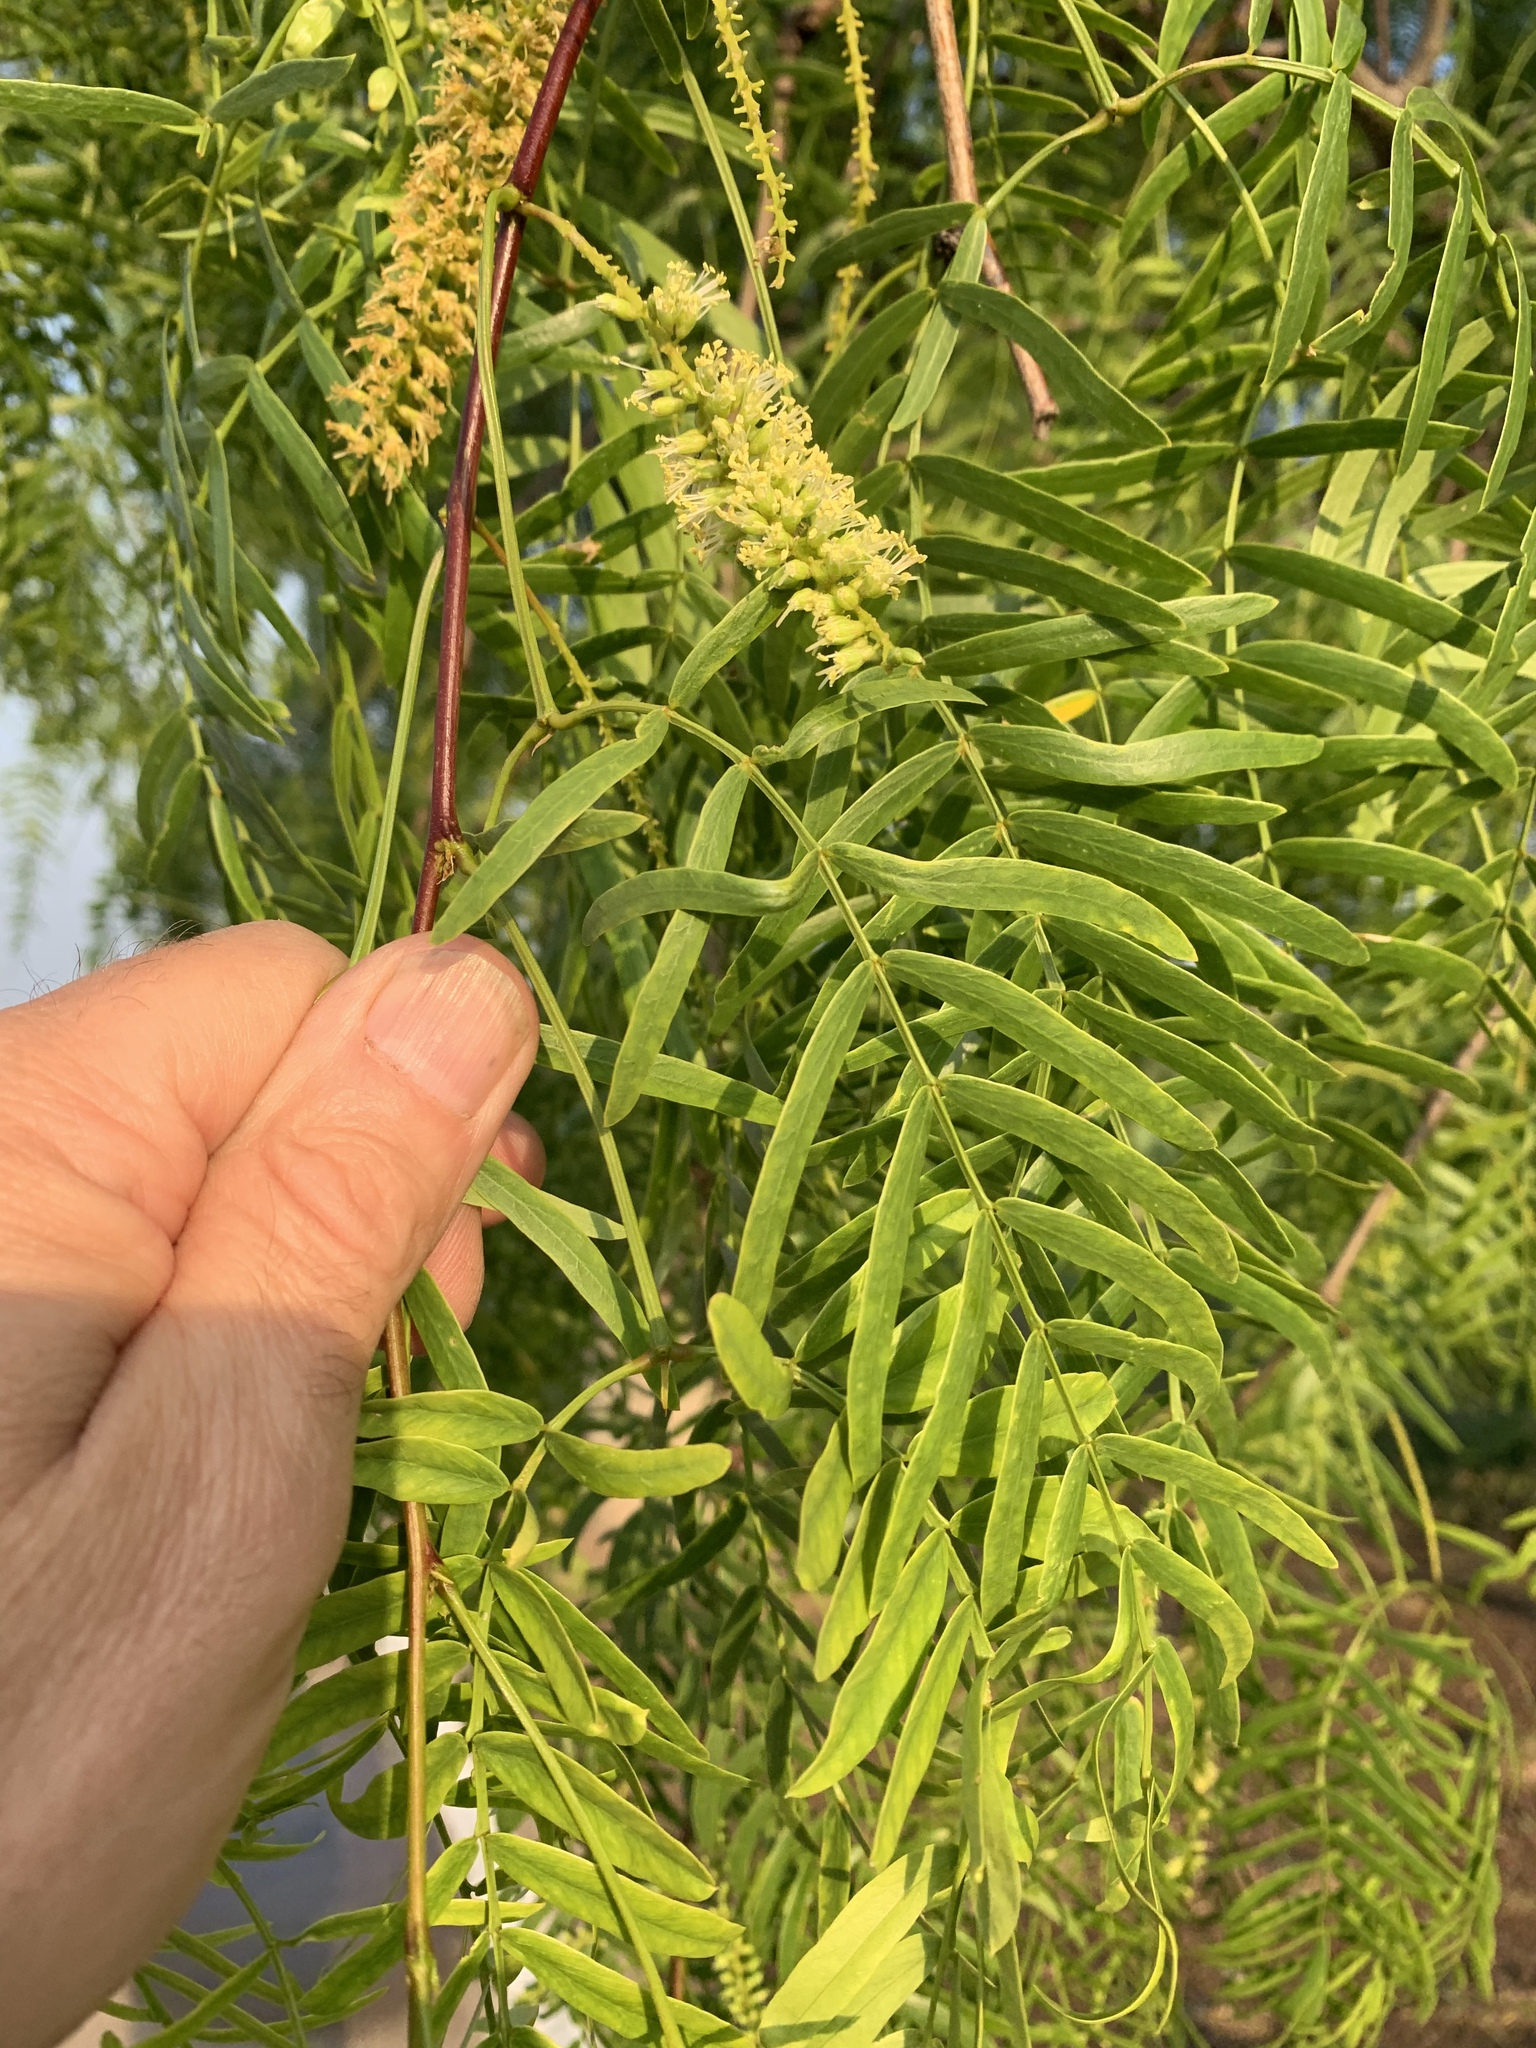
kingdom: Plantae
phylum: Tracheophyta
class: Magnoliopsida
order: Fabales
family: Fabaceae
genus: Prosopis
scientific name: Prosopis glandulosa
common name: Honey mesquite
